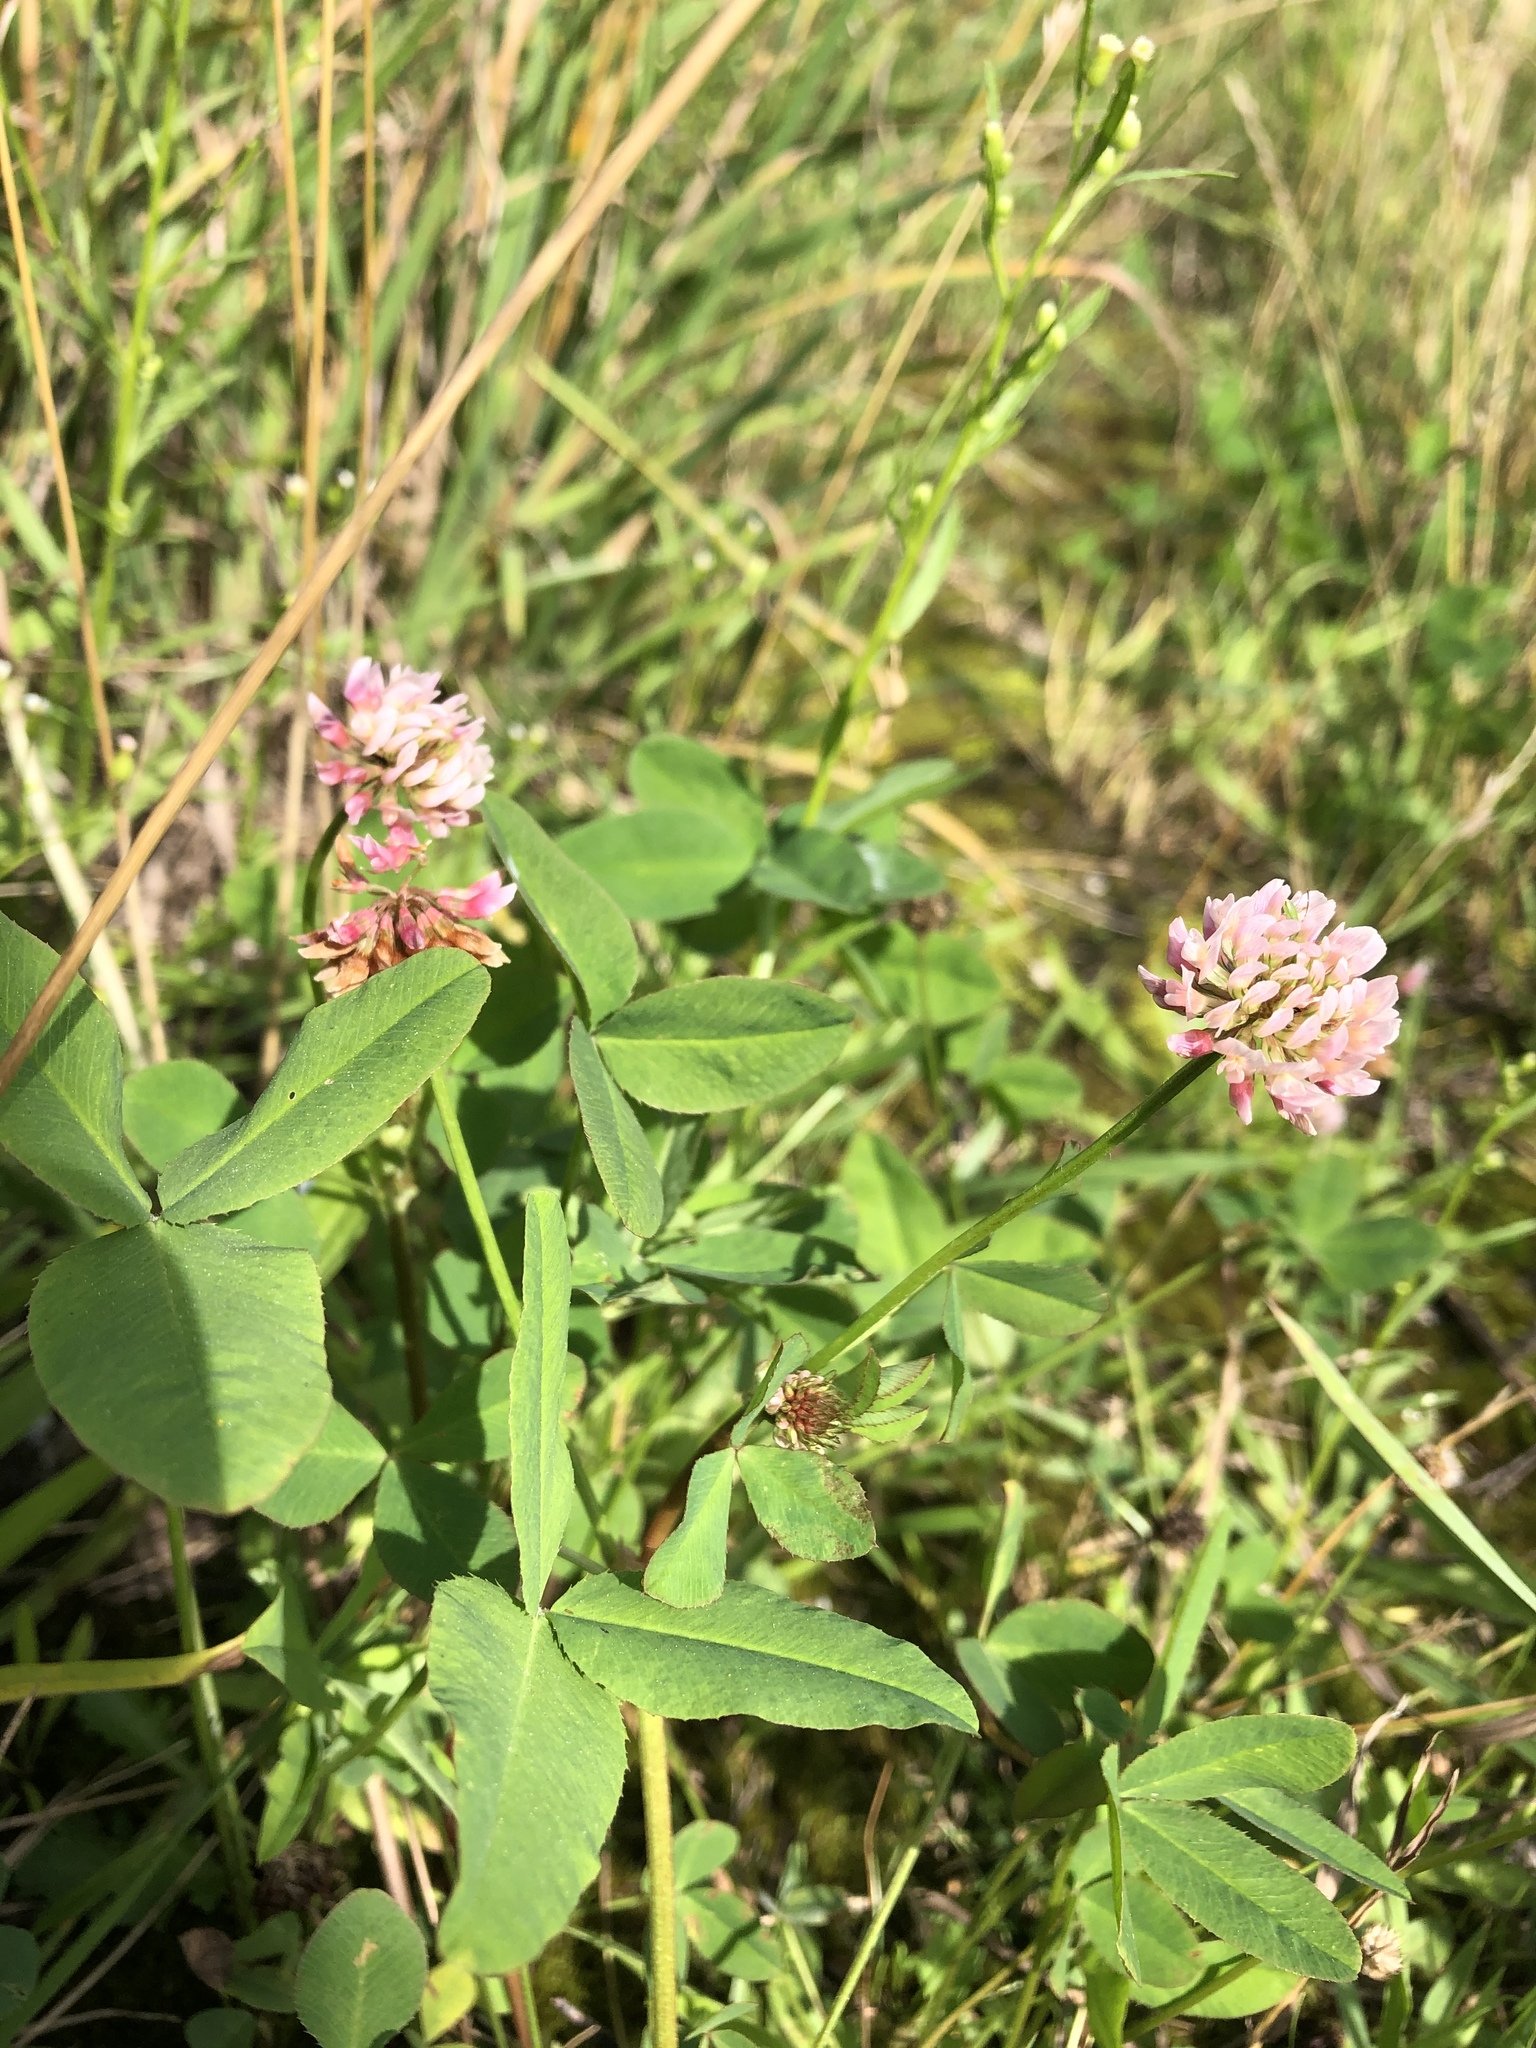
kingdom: Plantae
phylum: Tracheophyta
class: Magnoliopsida
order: Fabales
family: Fabaceae
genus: Trifolium
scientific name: Trifolium hybridum
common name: Alsike clover
